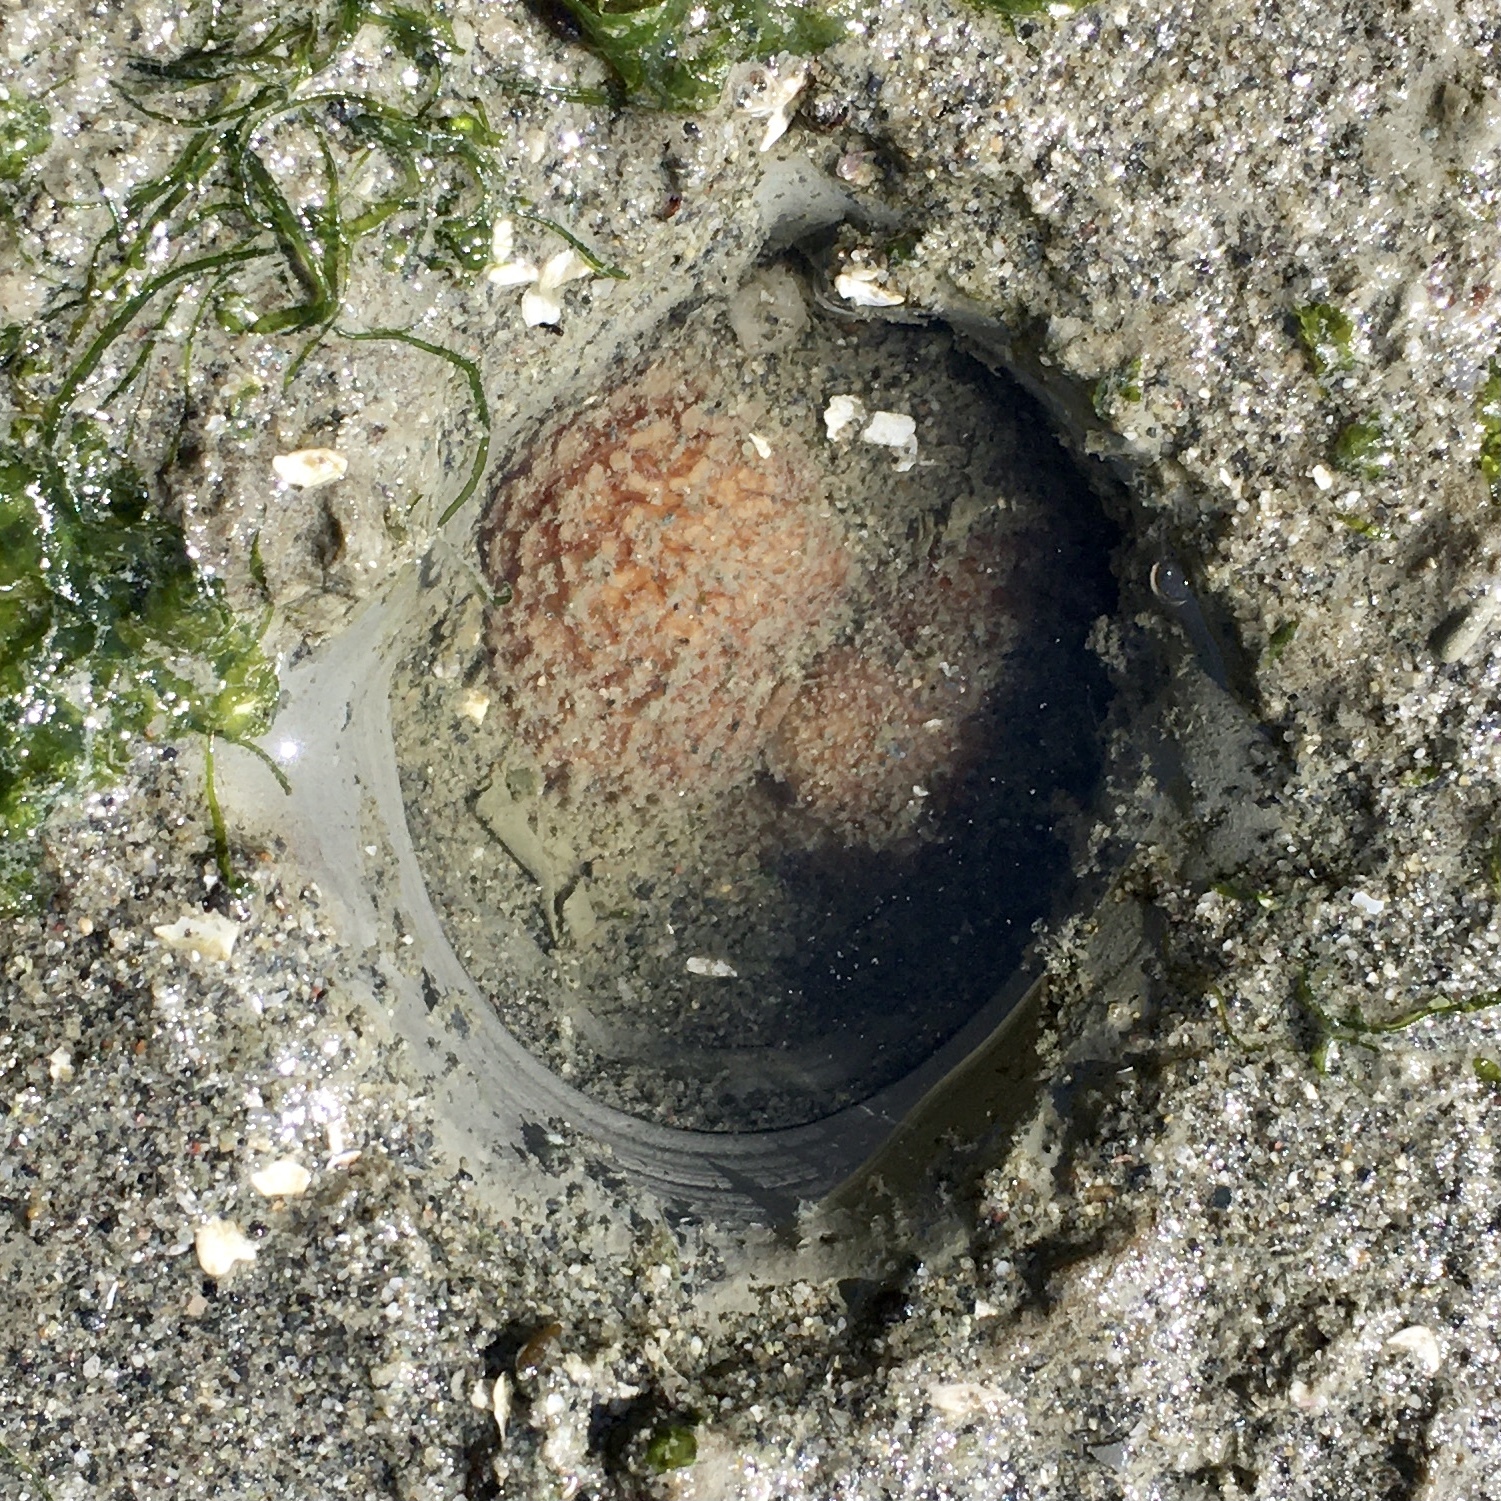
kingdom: Animalia
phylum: Mollusca
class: Bivalvia
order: Myida
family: Pholadidae
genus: Zirfaea
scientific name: Zirfaea pilsbryi
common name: Rough piddock
